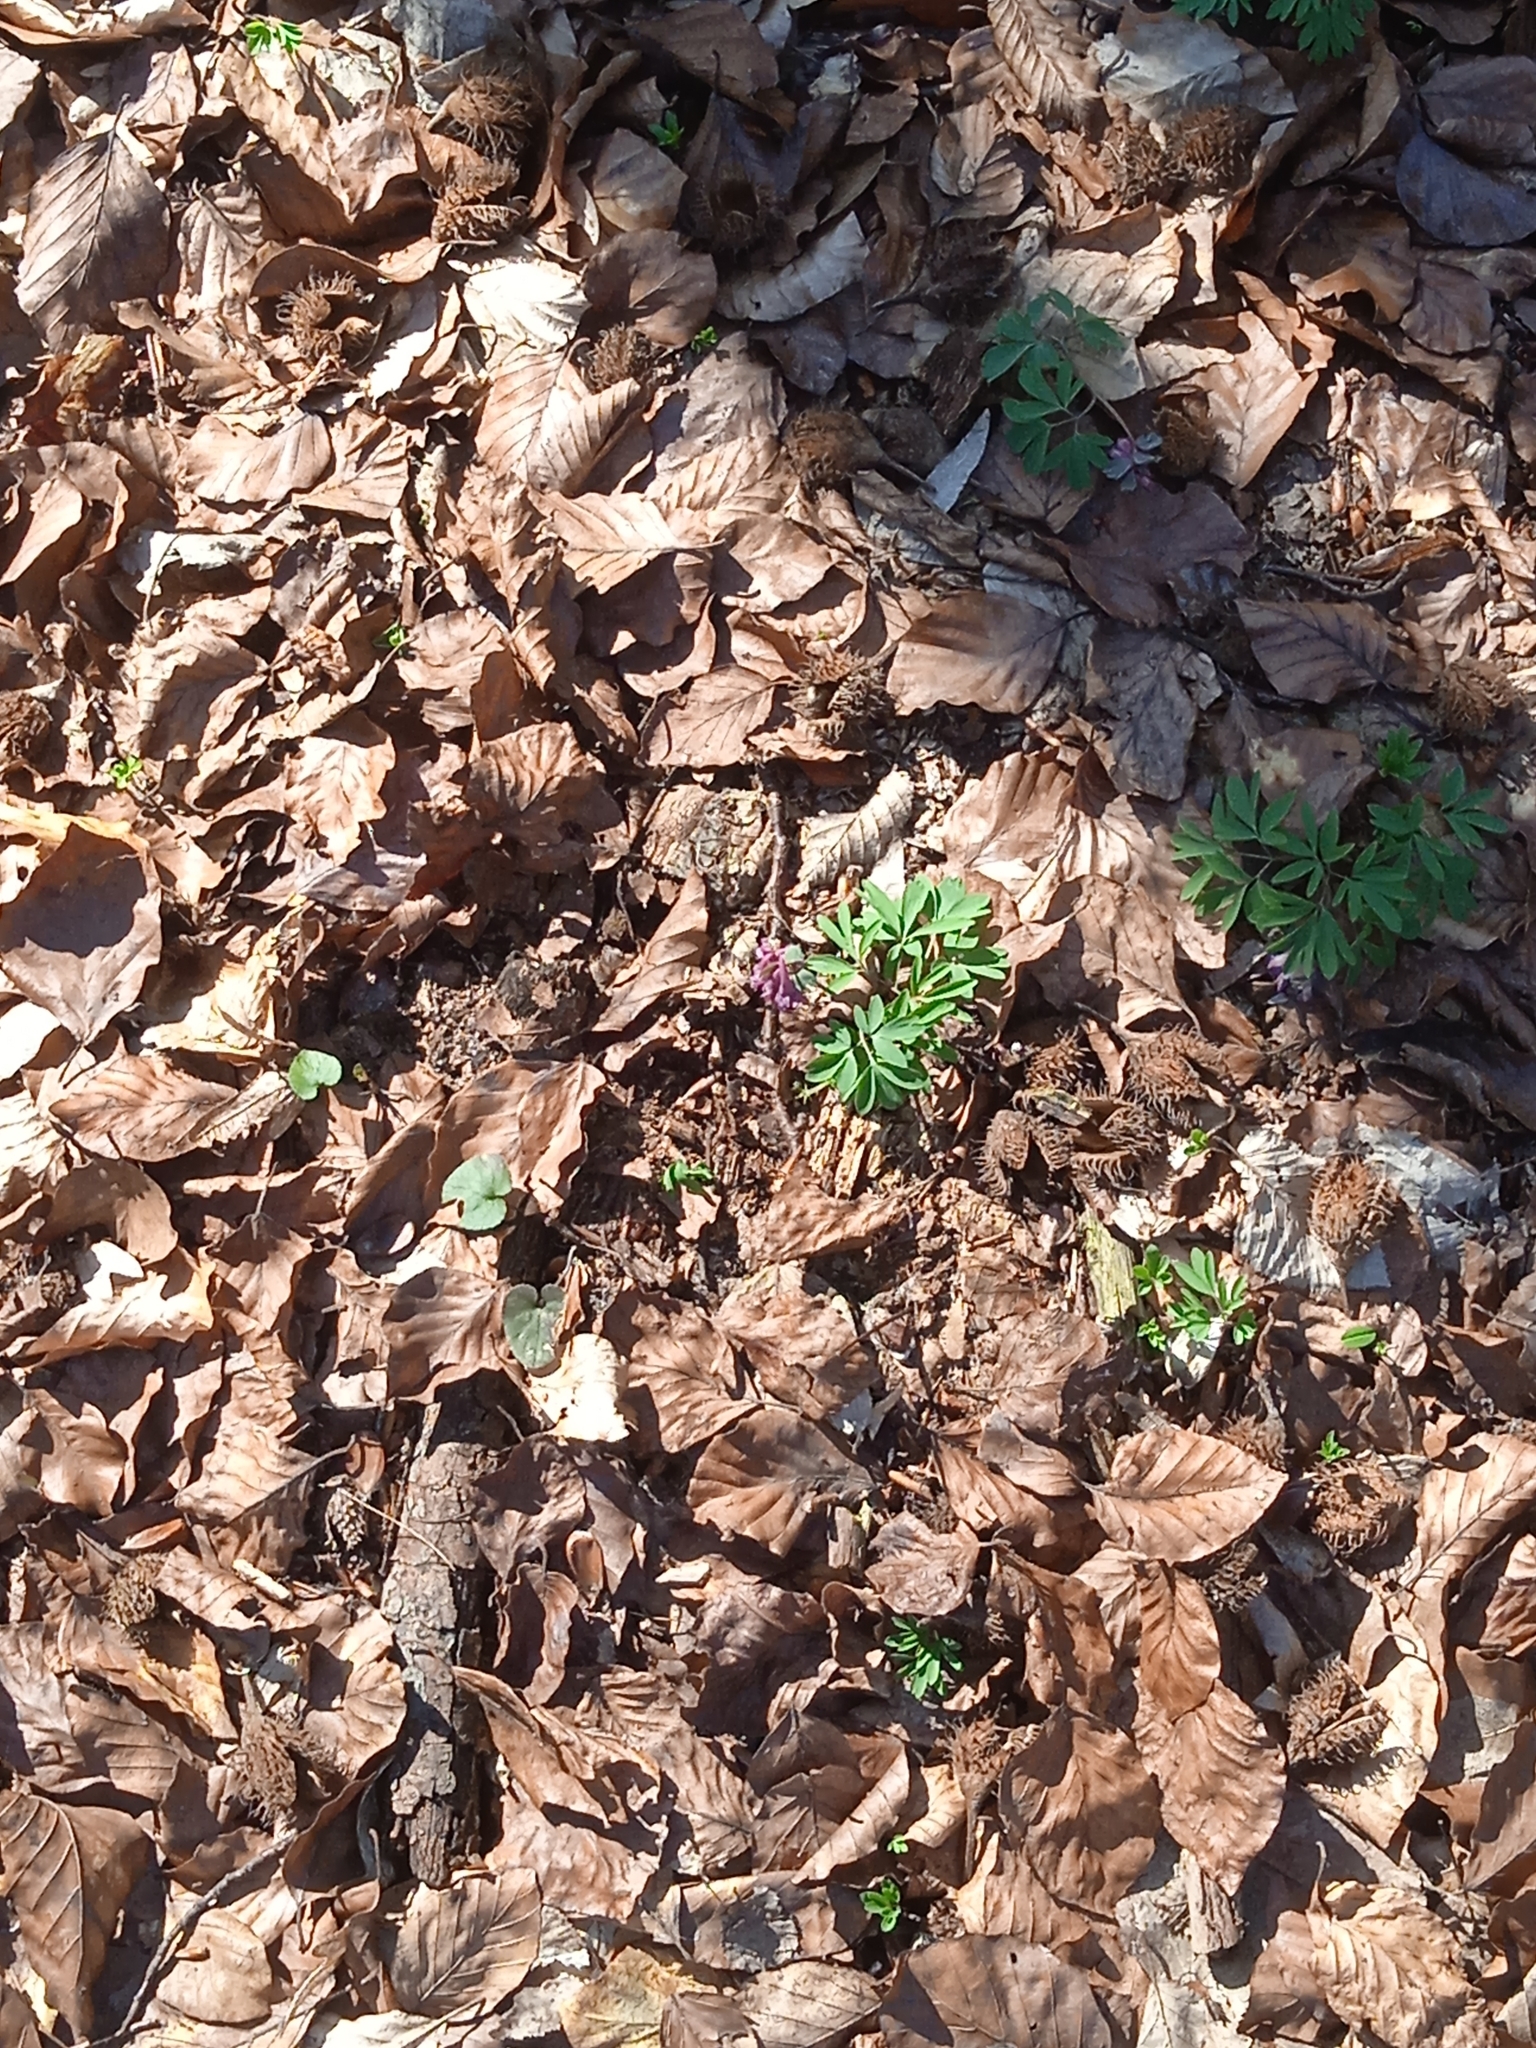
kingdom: Plantae
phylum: Tracheophyta
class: Magnoliopsida
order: Ranunculales
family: Papaveraceae
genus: Corydalis
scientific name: Corydalis solida
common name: Bird-in-a-bush
